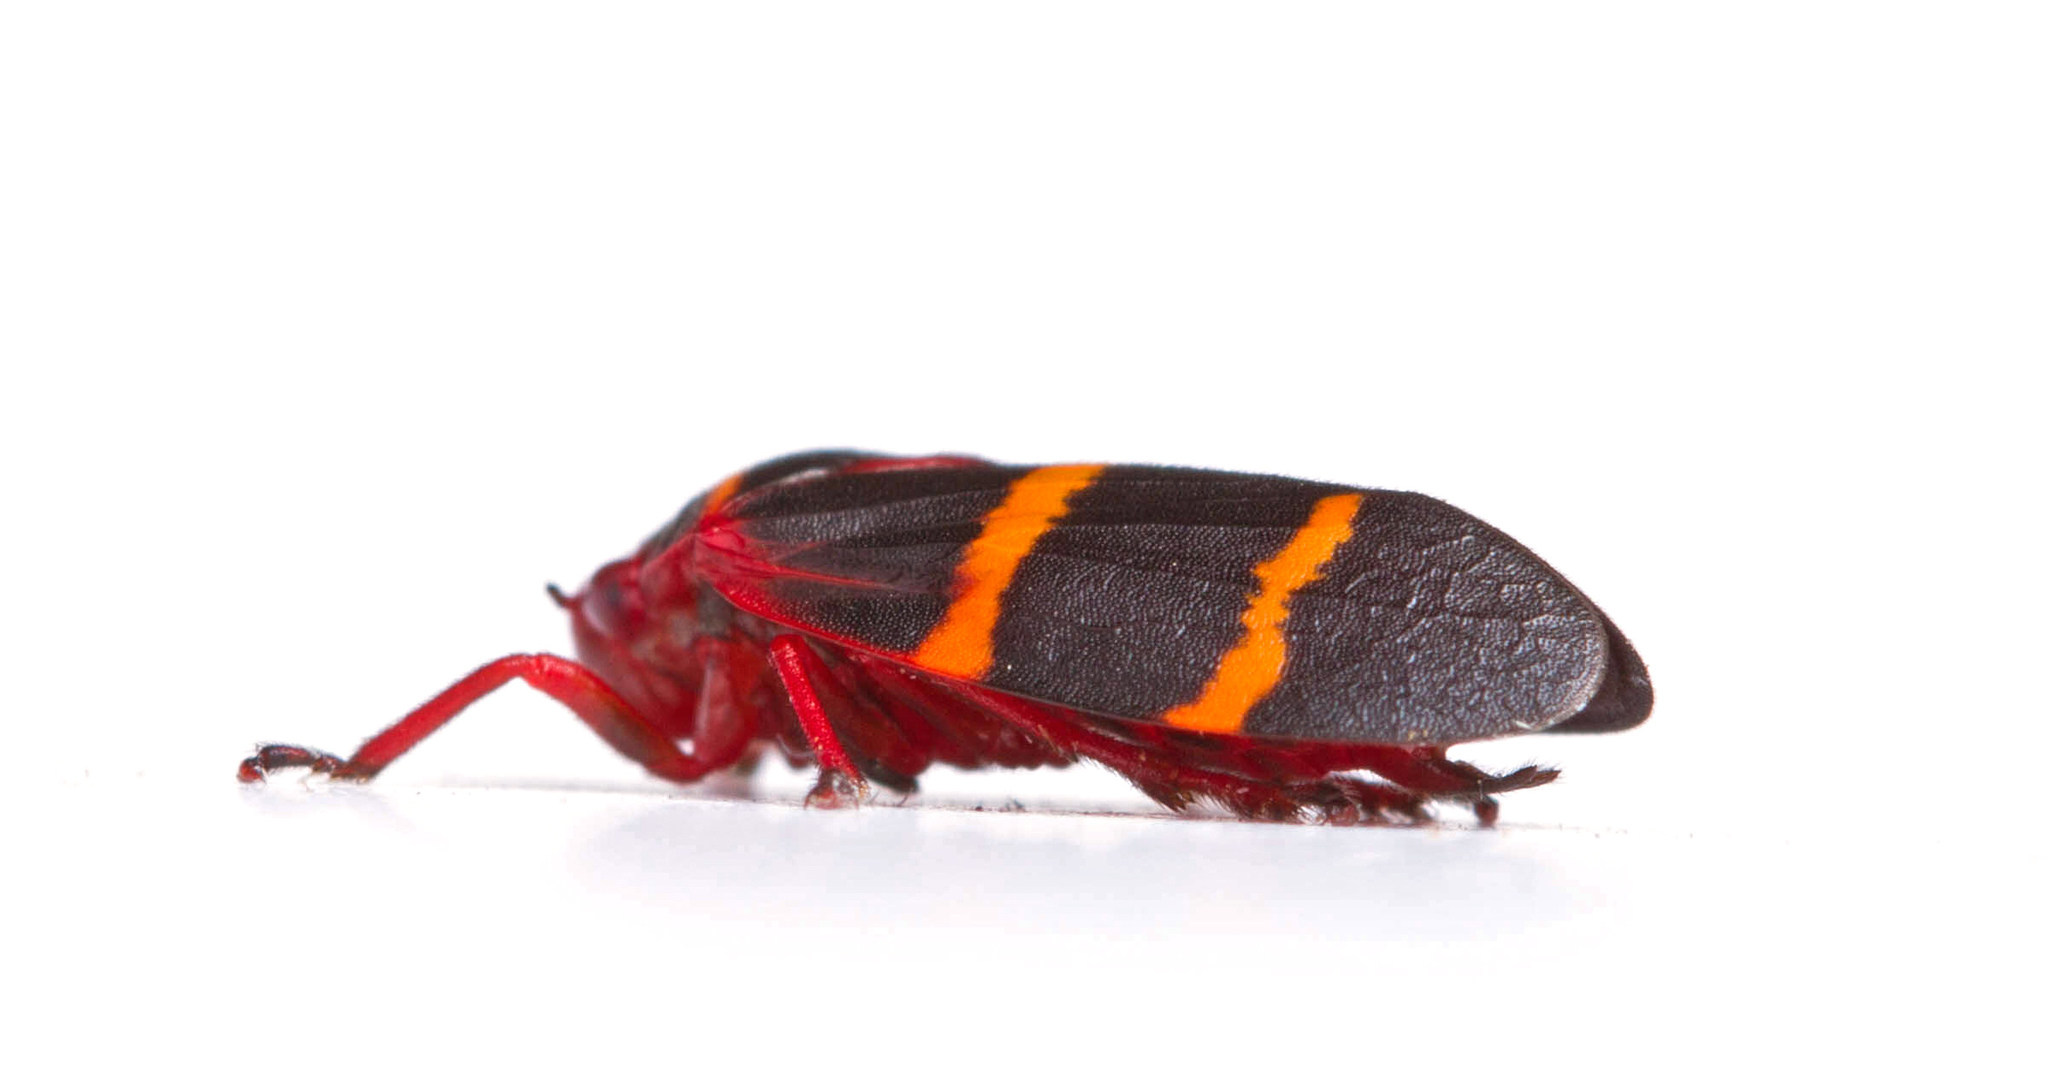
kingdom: Animalia
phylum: Arthropoda
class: Insecta
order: Hemiptera
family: Cercopidae
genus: Prosapia
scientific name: Prosapia bicincta
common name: Twolined spittlebug
